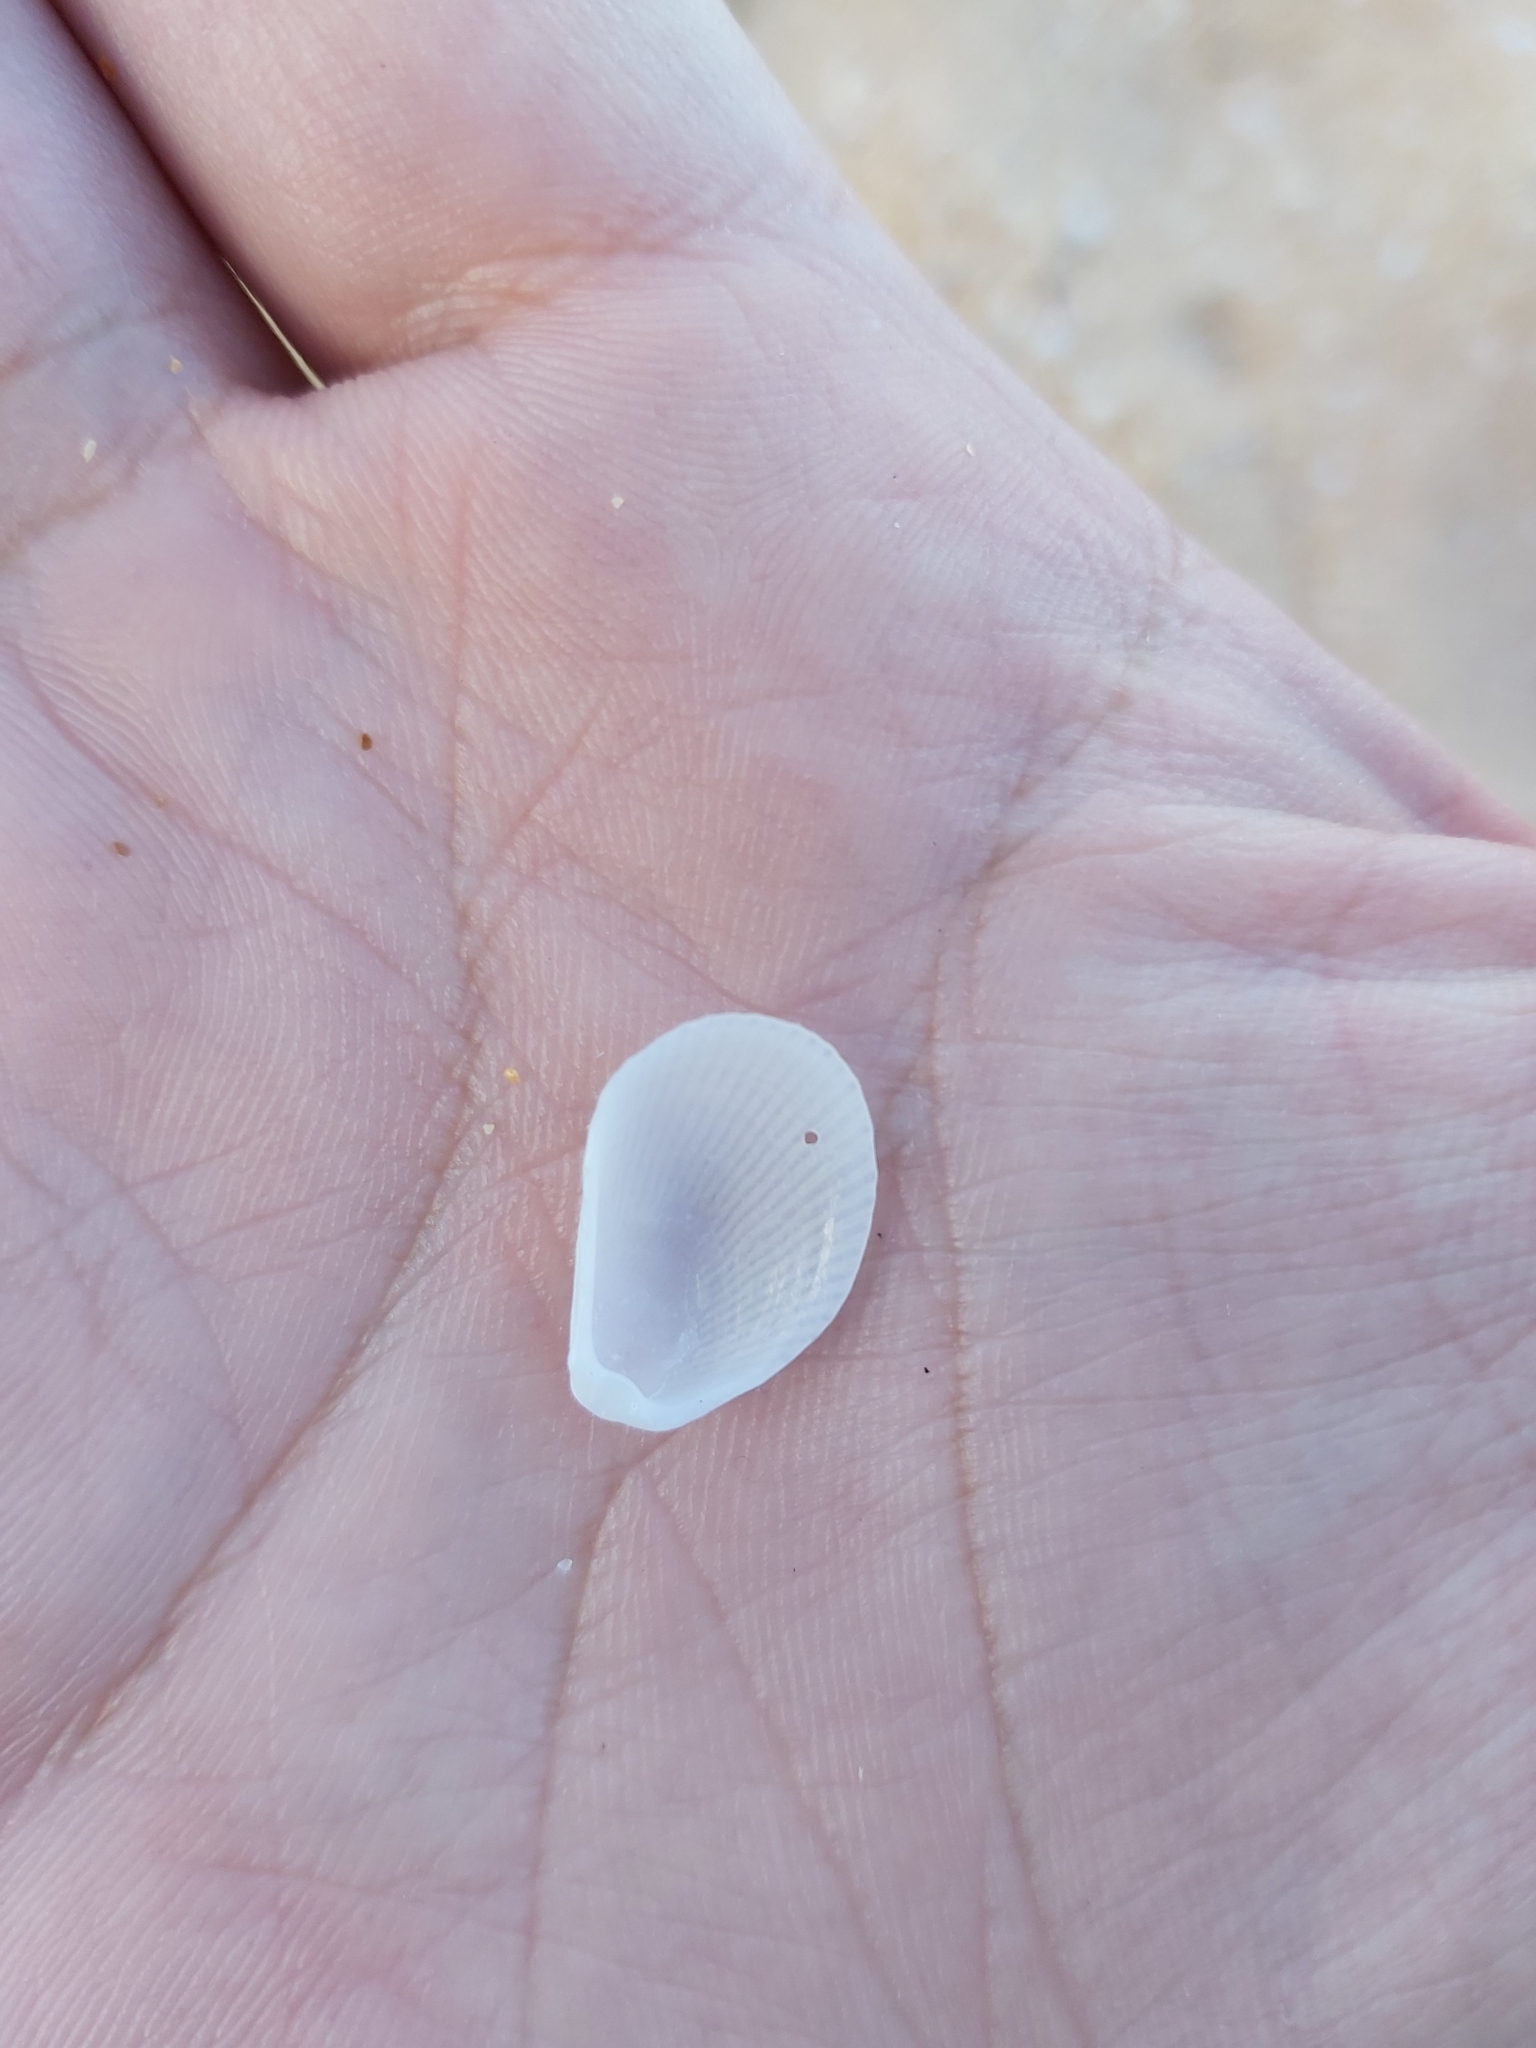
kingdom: Animalia
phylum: Mollusca
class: Bivalvia
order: Limida
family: Limidae
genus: Lima
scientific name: Lima nimbifer
